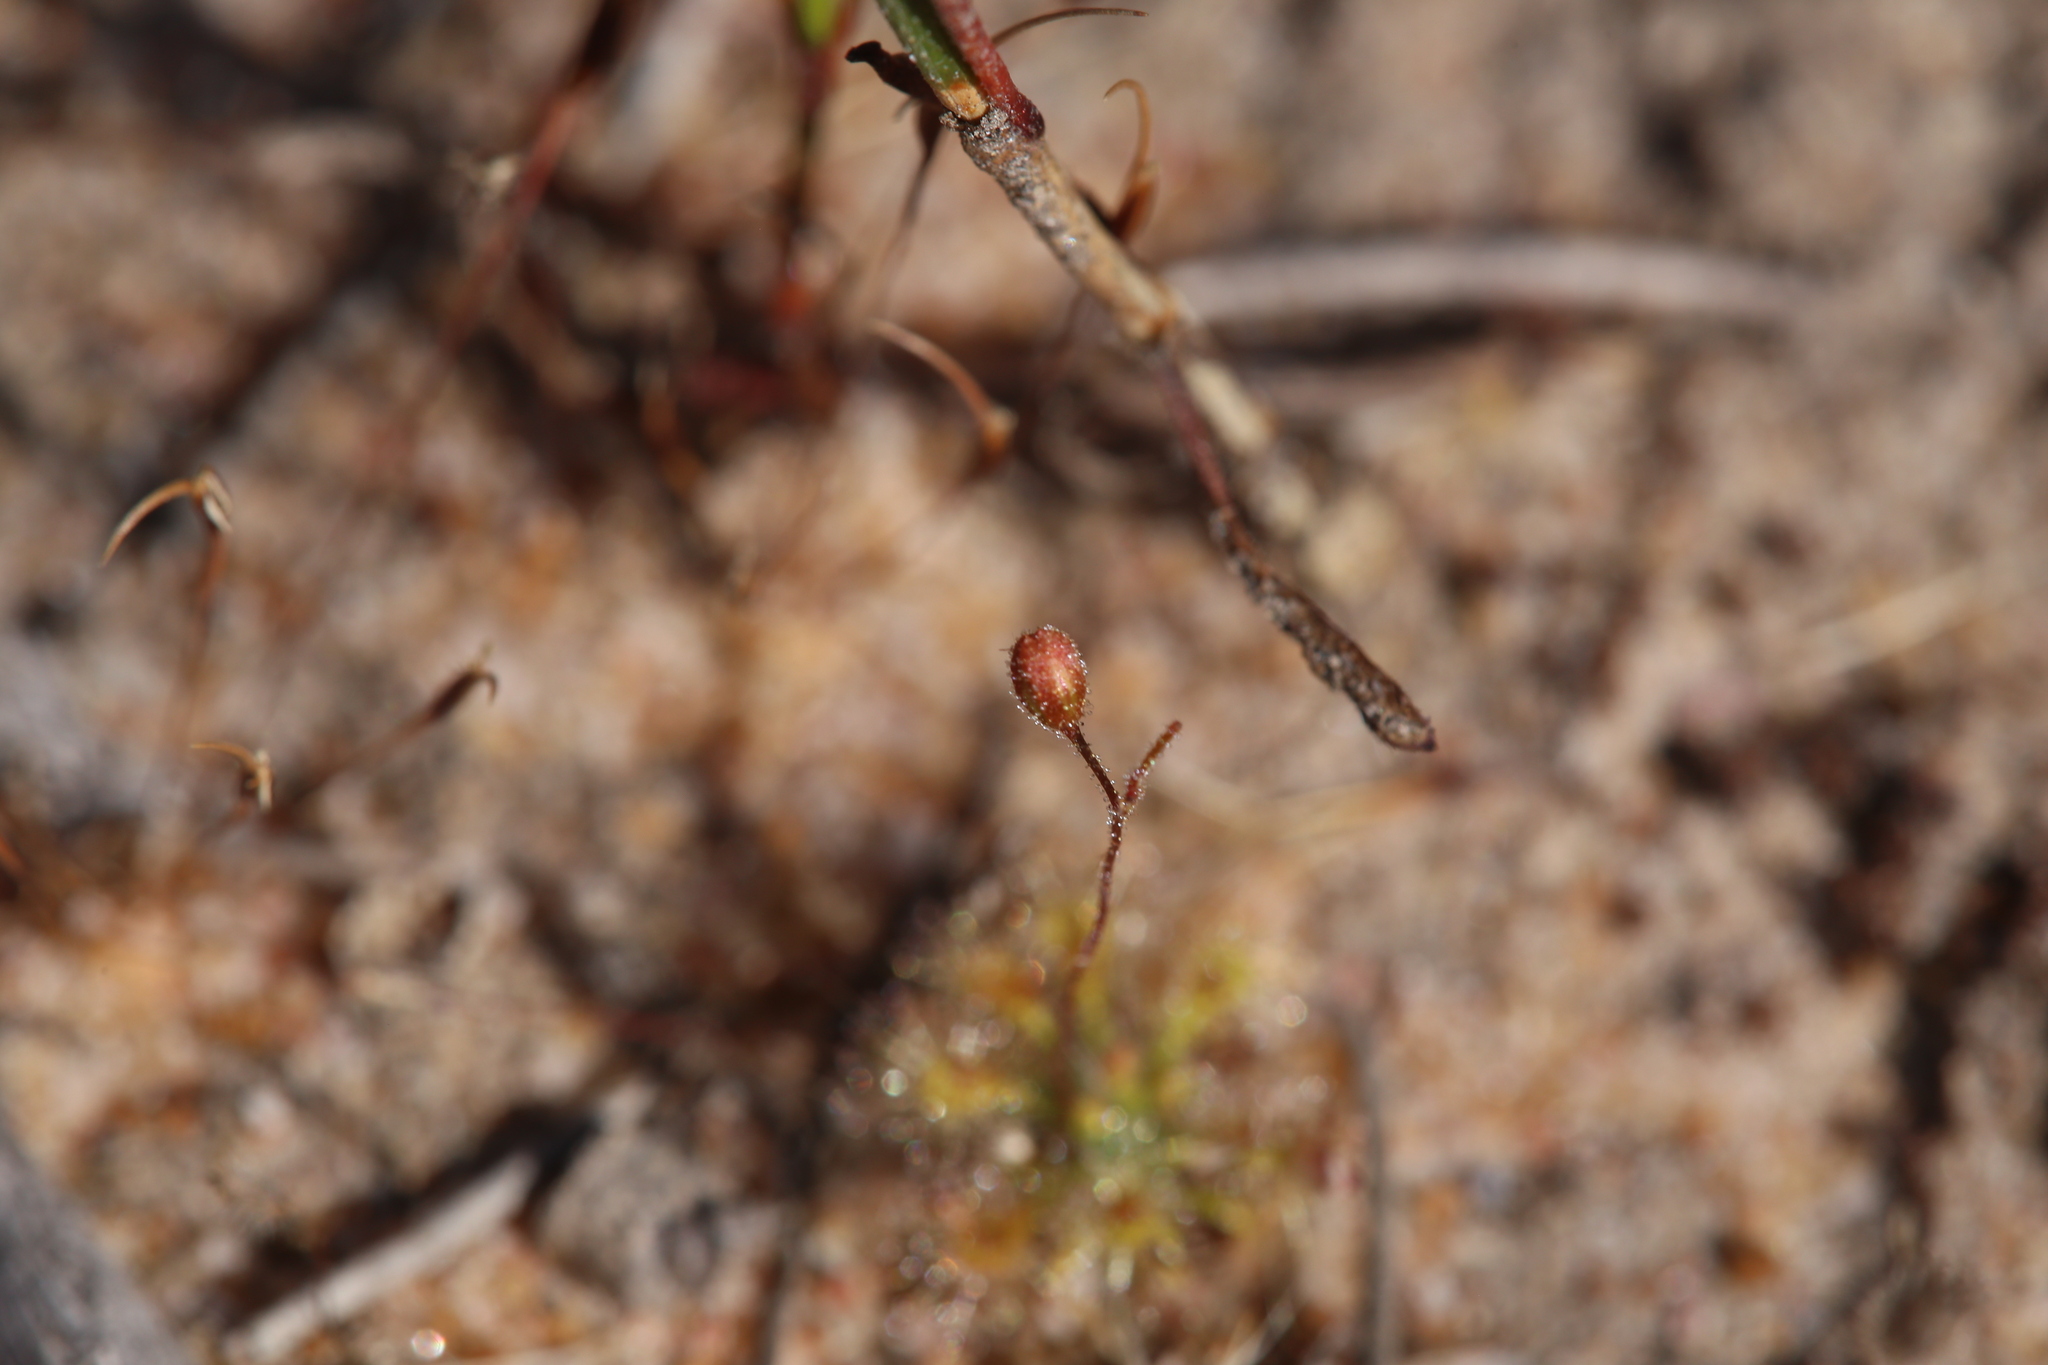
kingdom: Plantae
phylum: Tracheophyta
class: Magnoliopsida
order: Caryophyllales
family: Droseraceae
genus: Drosera
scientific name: Drosera nitidula
